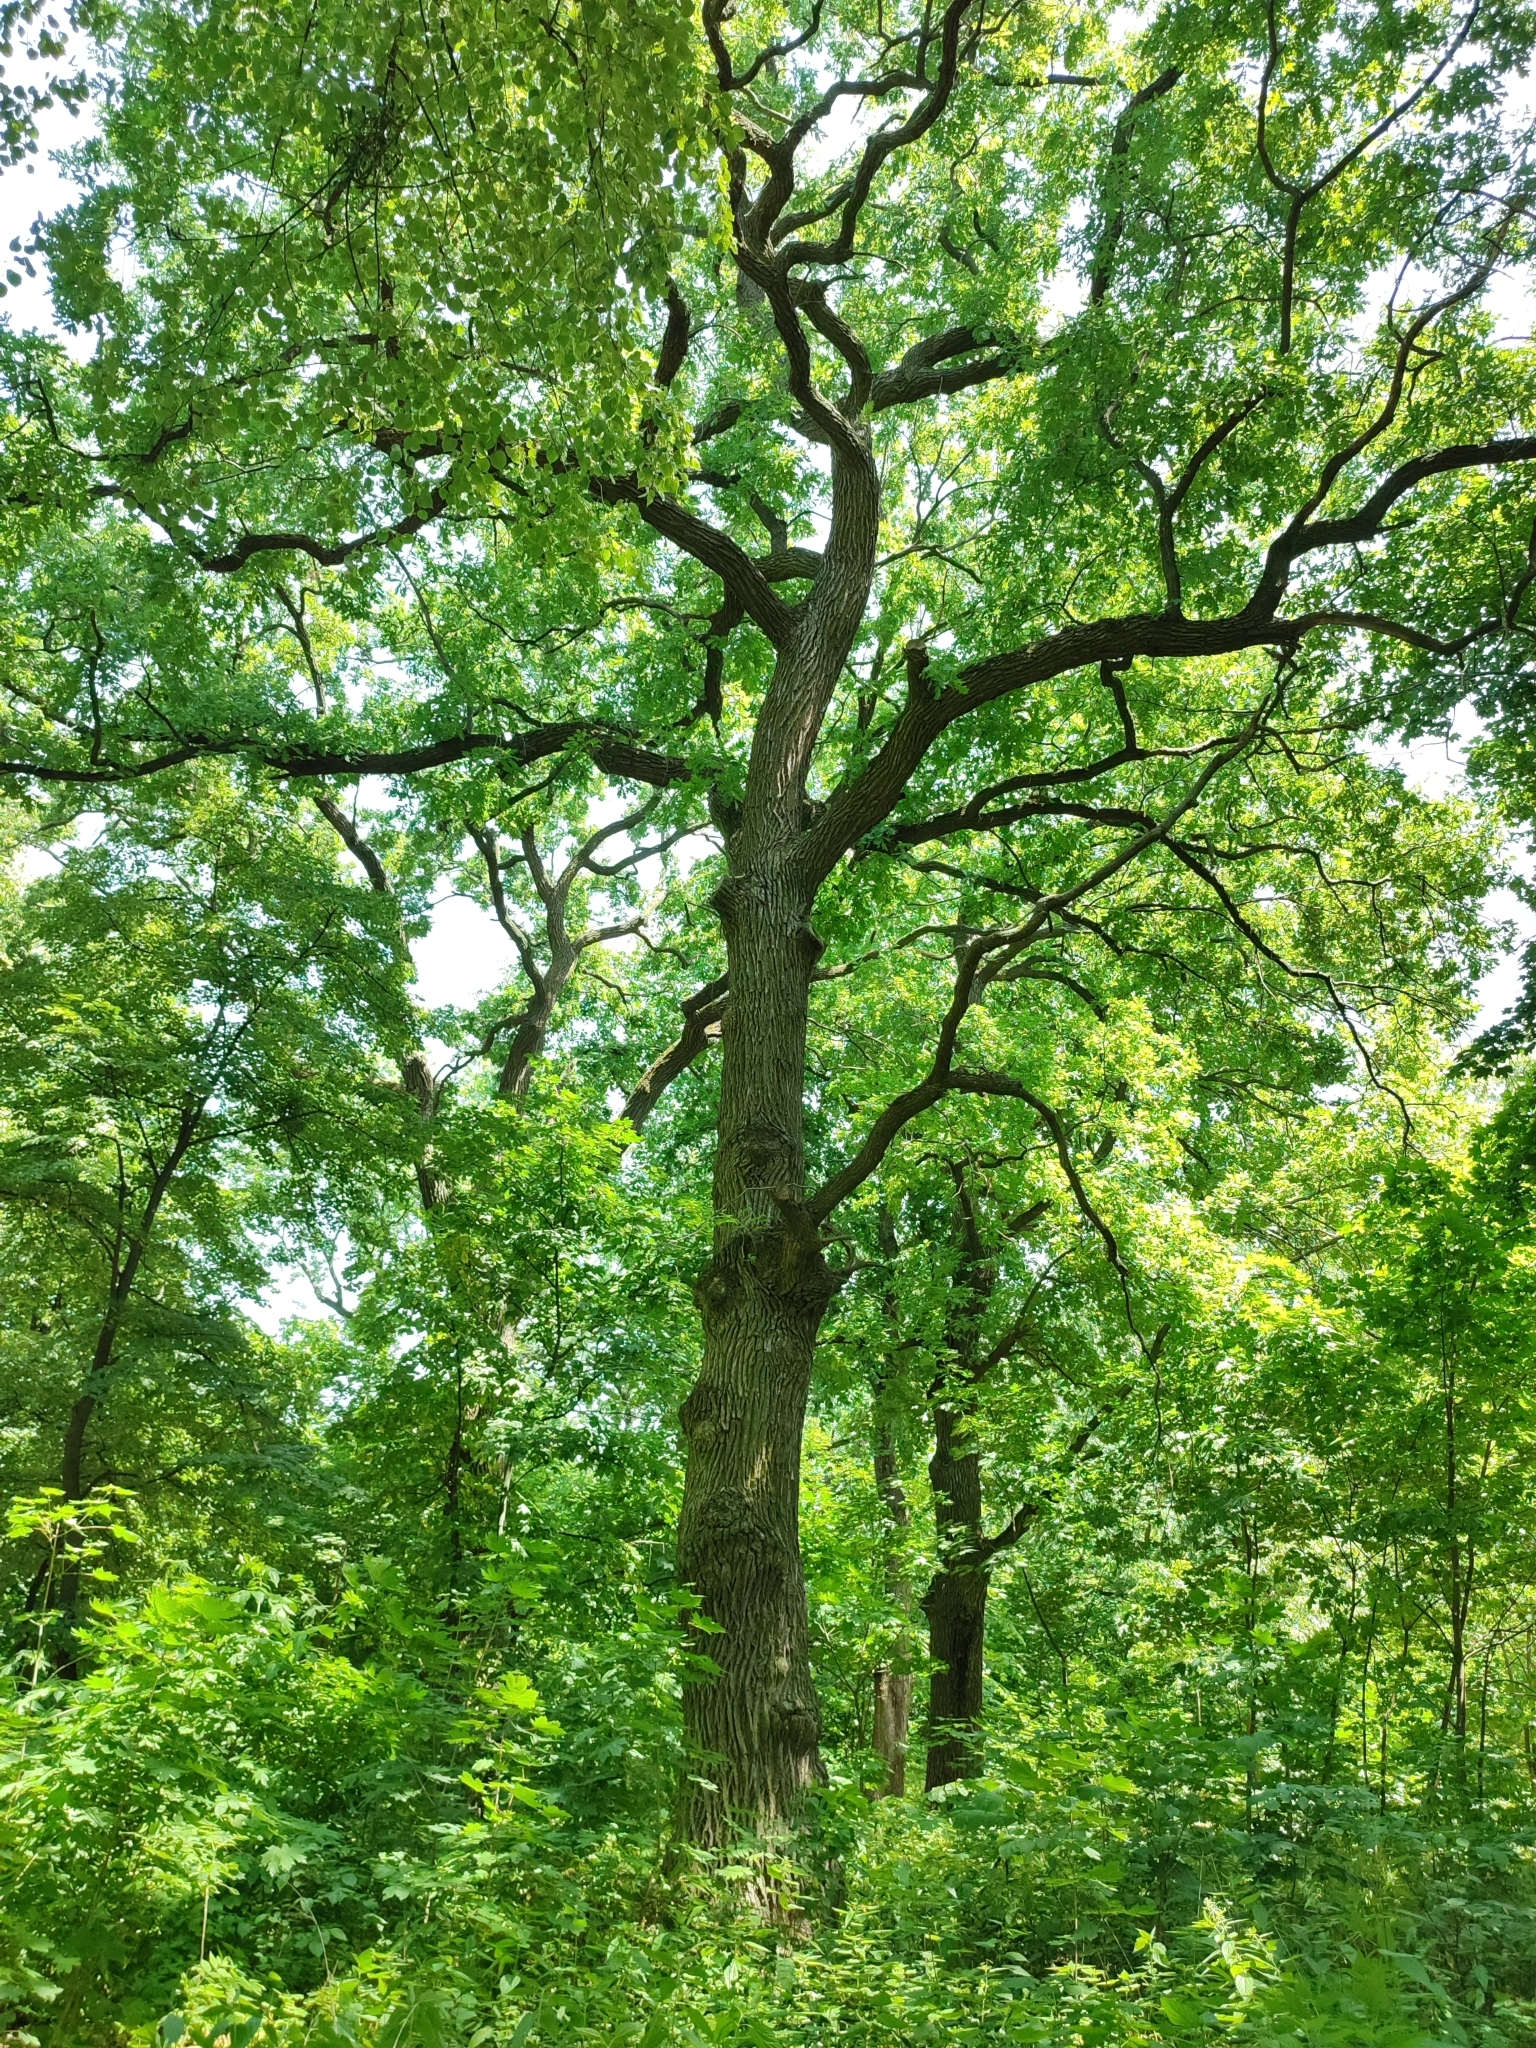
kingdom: Plantae
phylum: Tracheophyta
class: Magnoliopsida
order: Fagales
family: Fagaceae
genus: Quercus
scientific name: Quercus robur
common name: Pedunculate oak
